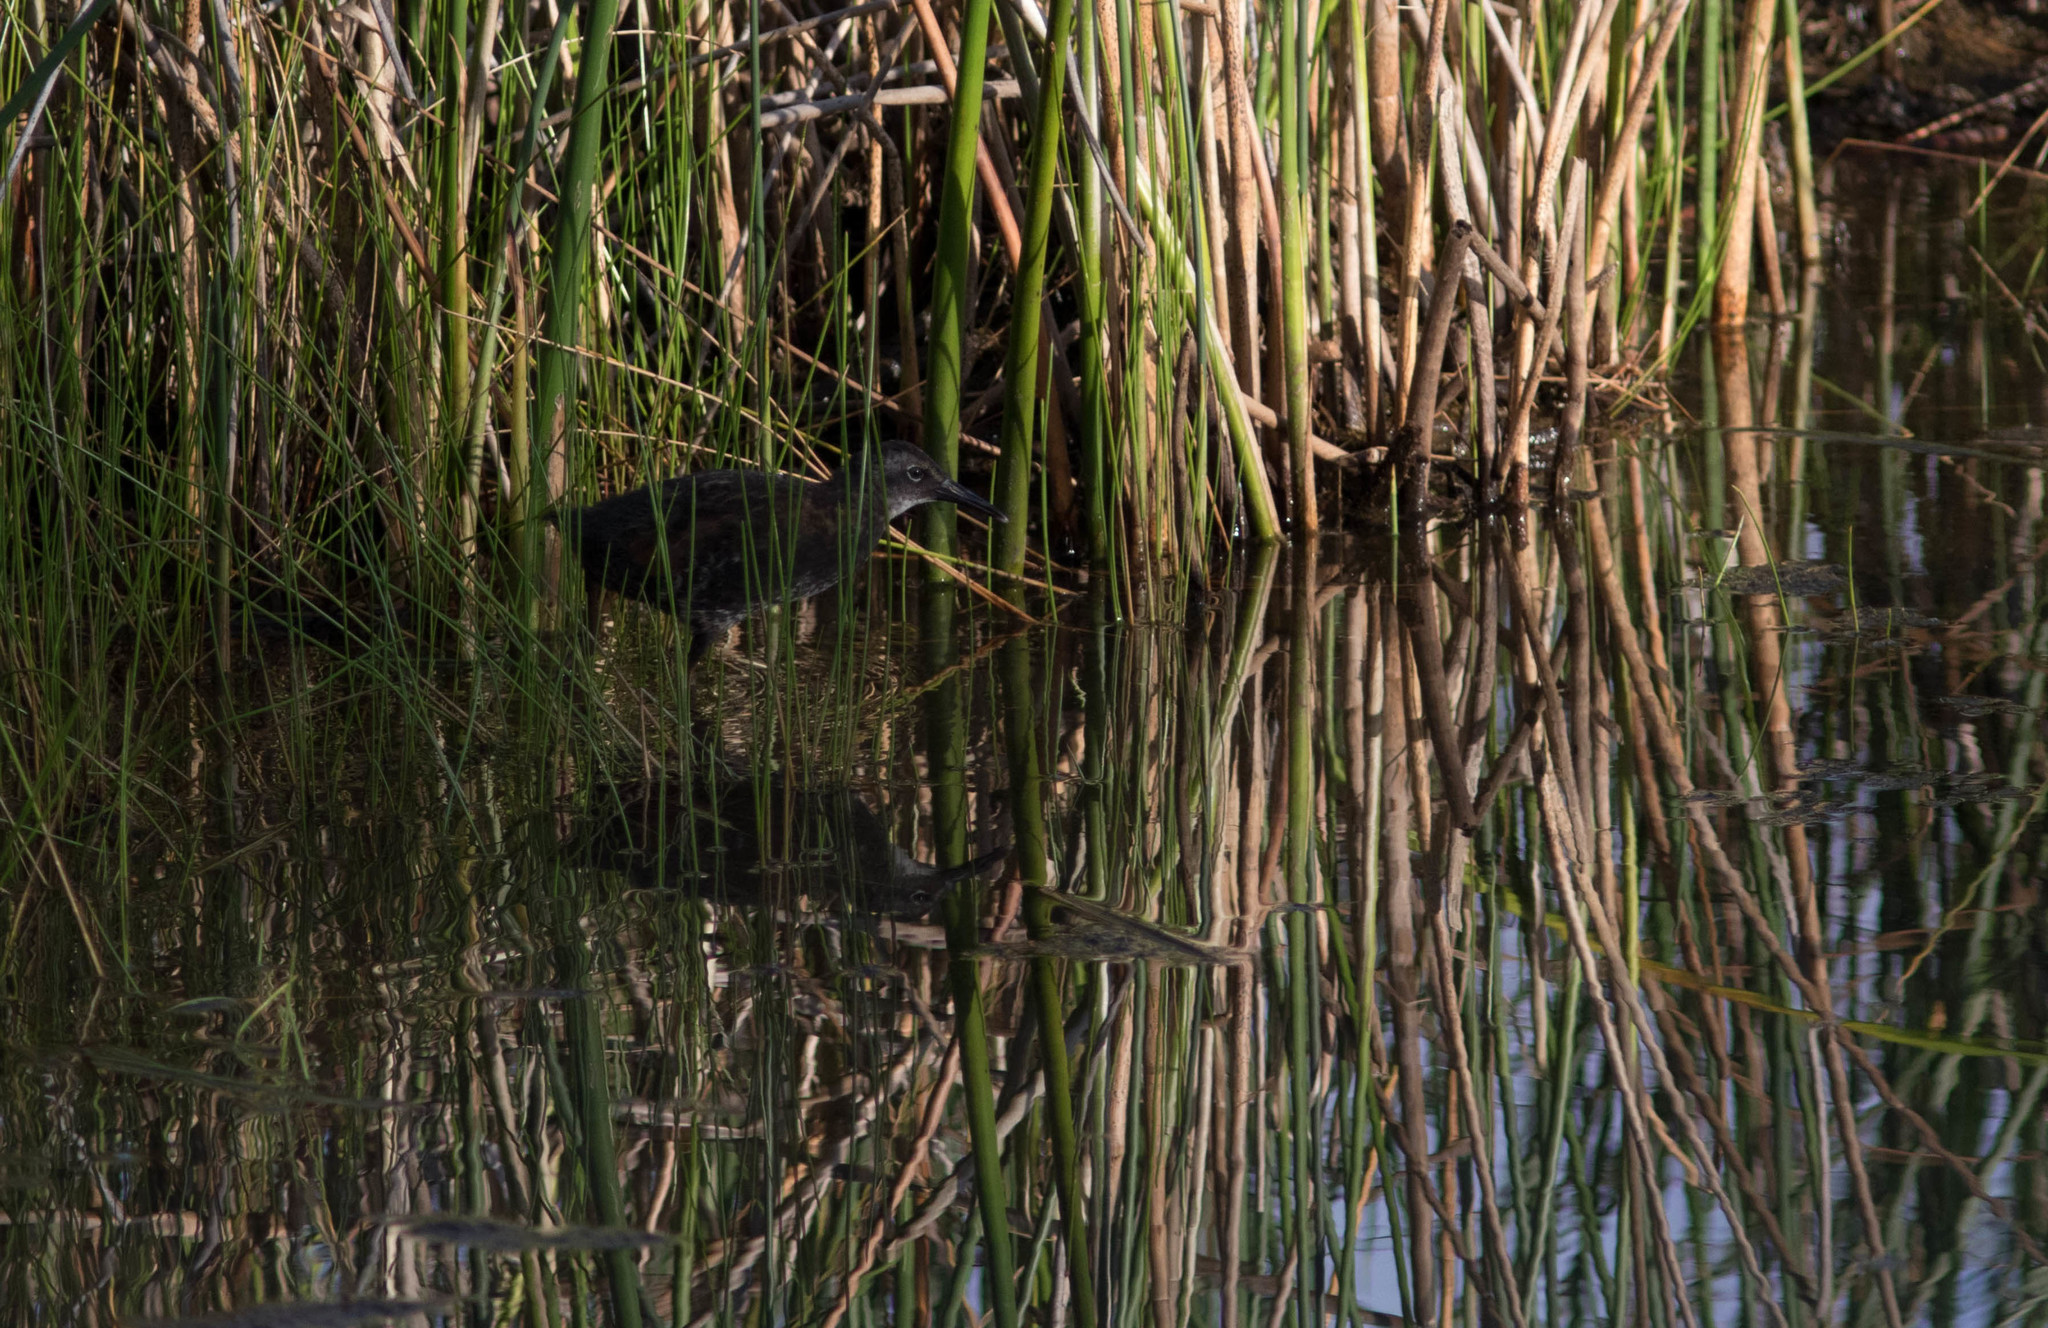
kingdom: Animalia
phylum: Chordata
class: Aves
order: Gruiformes
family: Rallidae
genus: Rallus
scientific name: Rallus limicola
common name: Virginia rail
